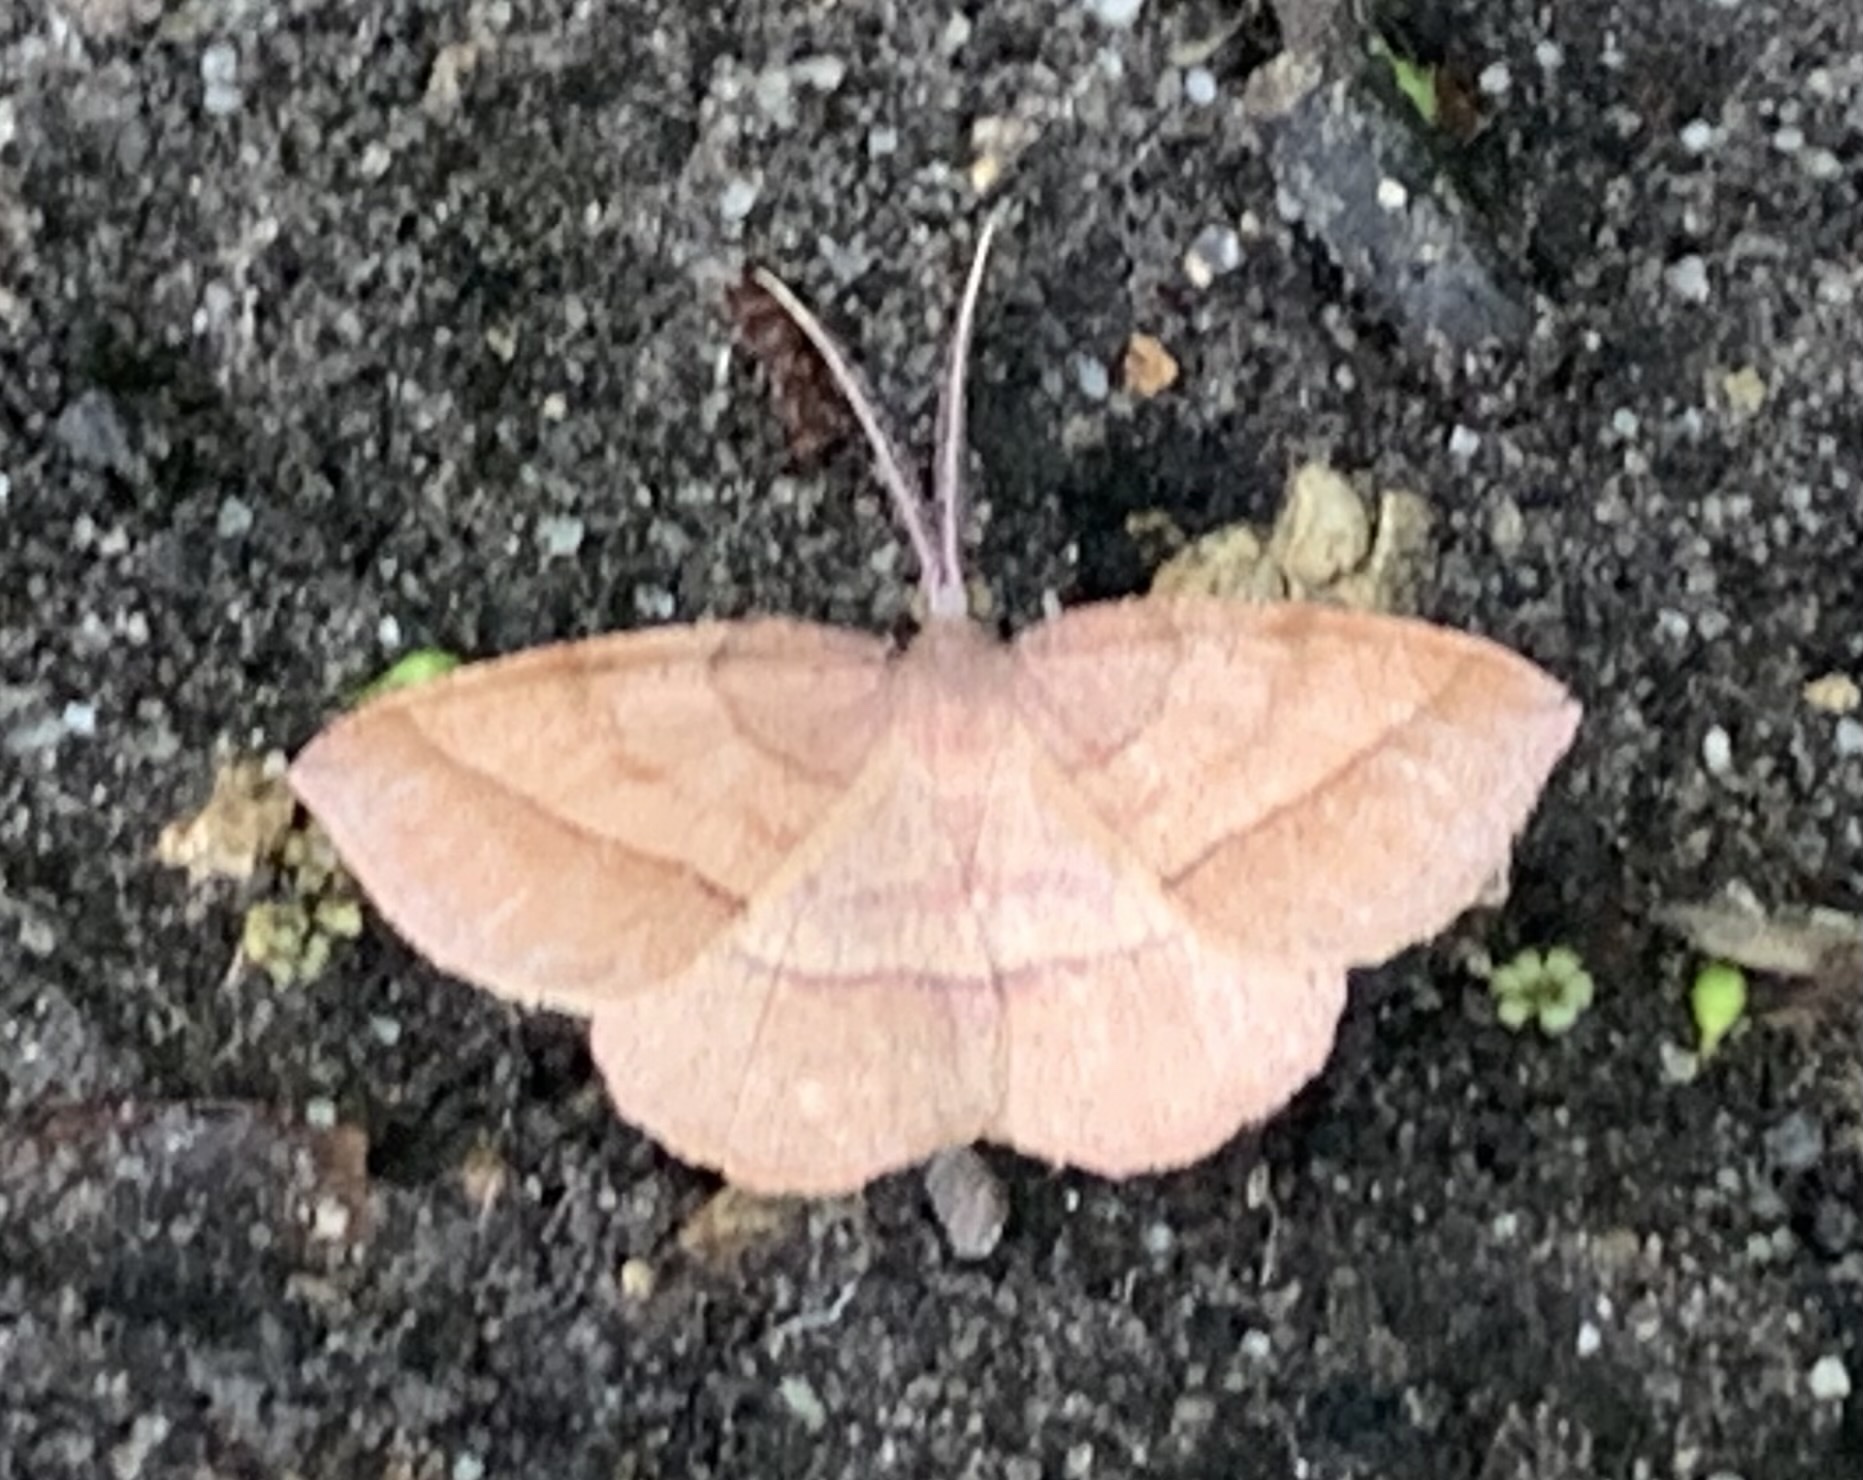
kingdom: Animalia
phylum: Arthropoda
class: Insecta
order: Lepidoptera
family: Geometridae
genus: Erastria
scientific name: Erastria cruentaria
